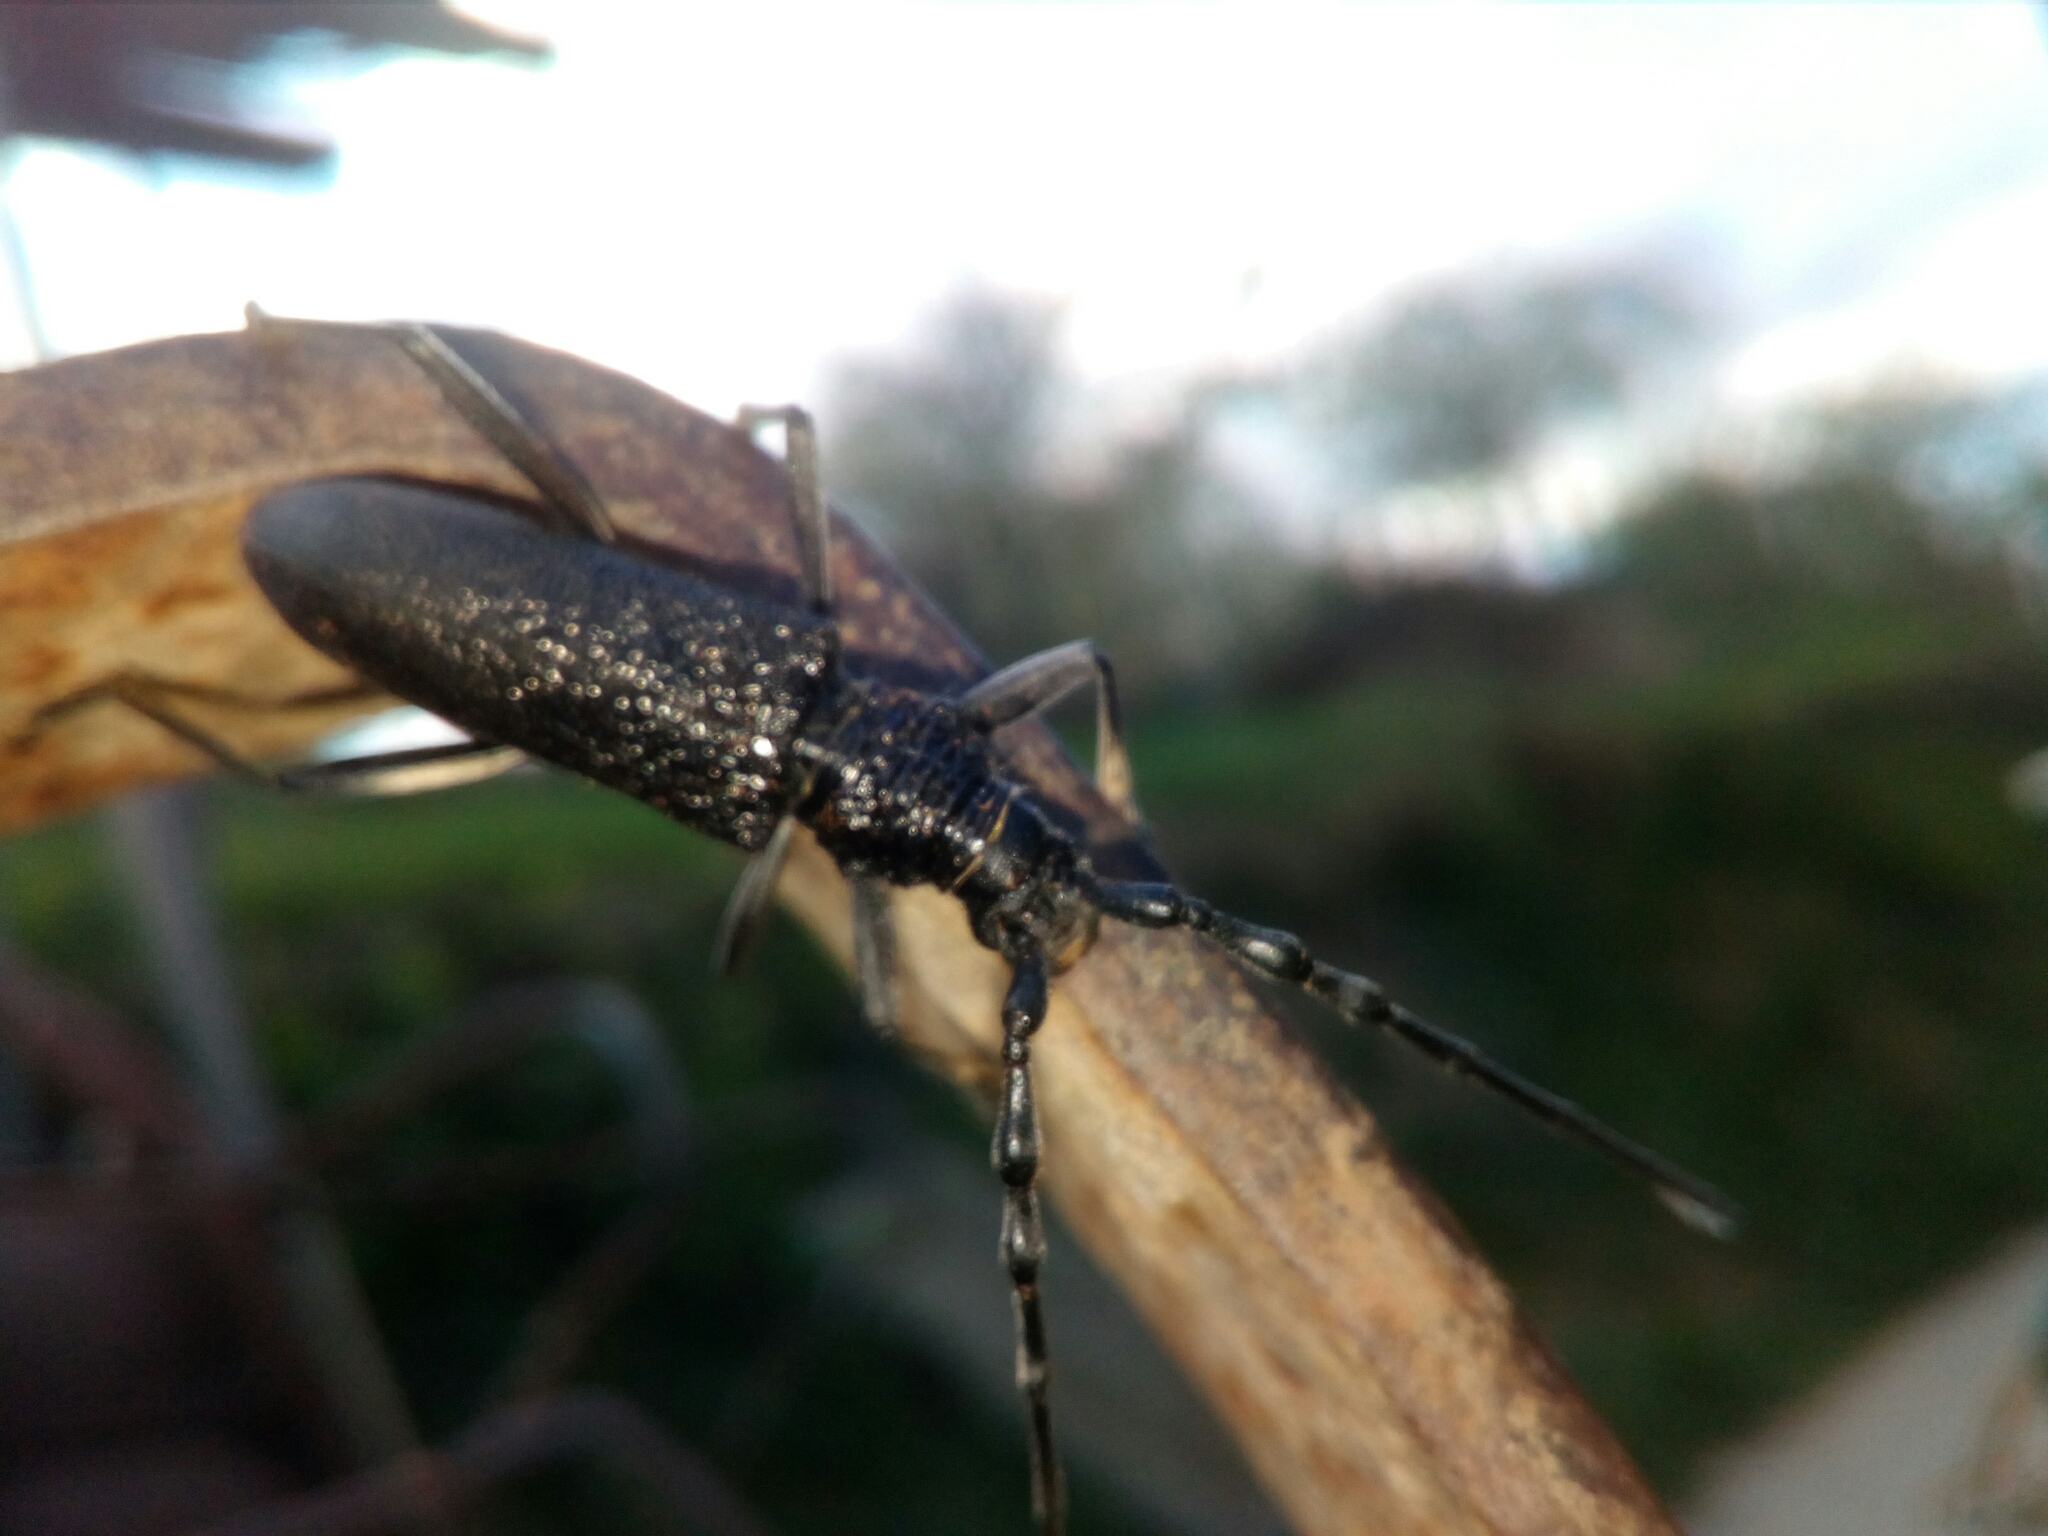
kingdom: Animalia
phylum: Arthropoda
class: Insecta
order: Coleoptera
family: Cerambycidae
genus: Cerambyx
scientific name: Cerambyx scopolii
